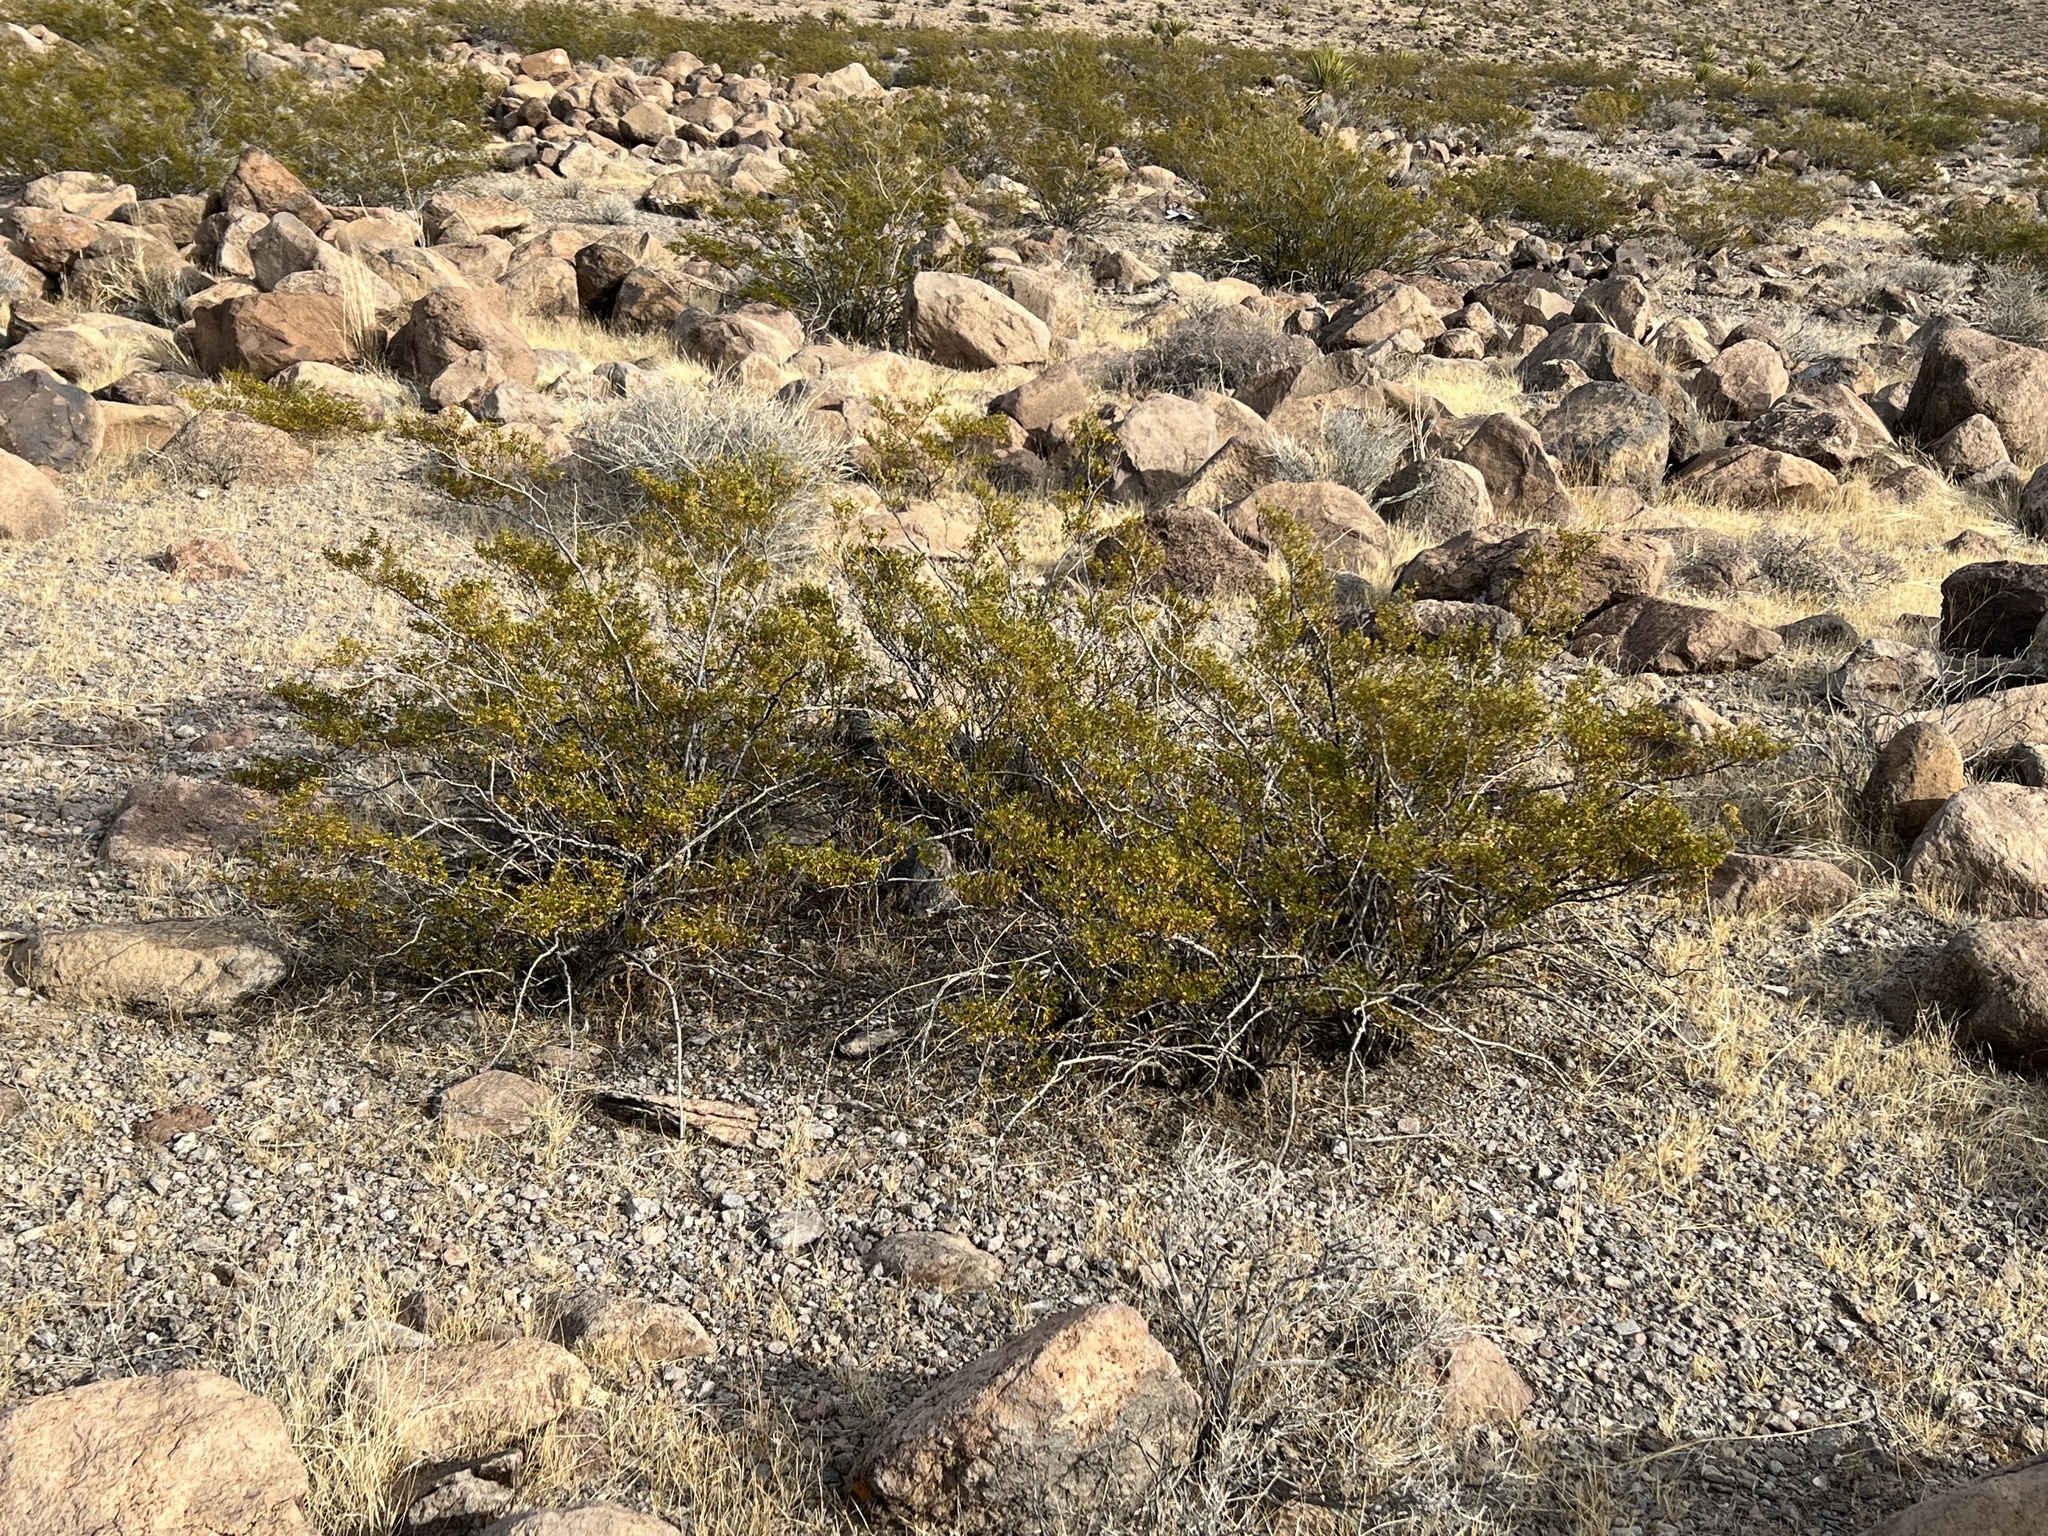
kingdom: Plantae
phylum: Tracheophyta
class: Magnoliopsida
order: Zygophyllales
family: Zygophyllaceae
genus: Larrea
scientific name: Larrea tridentata
